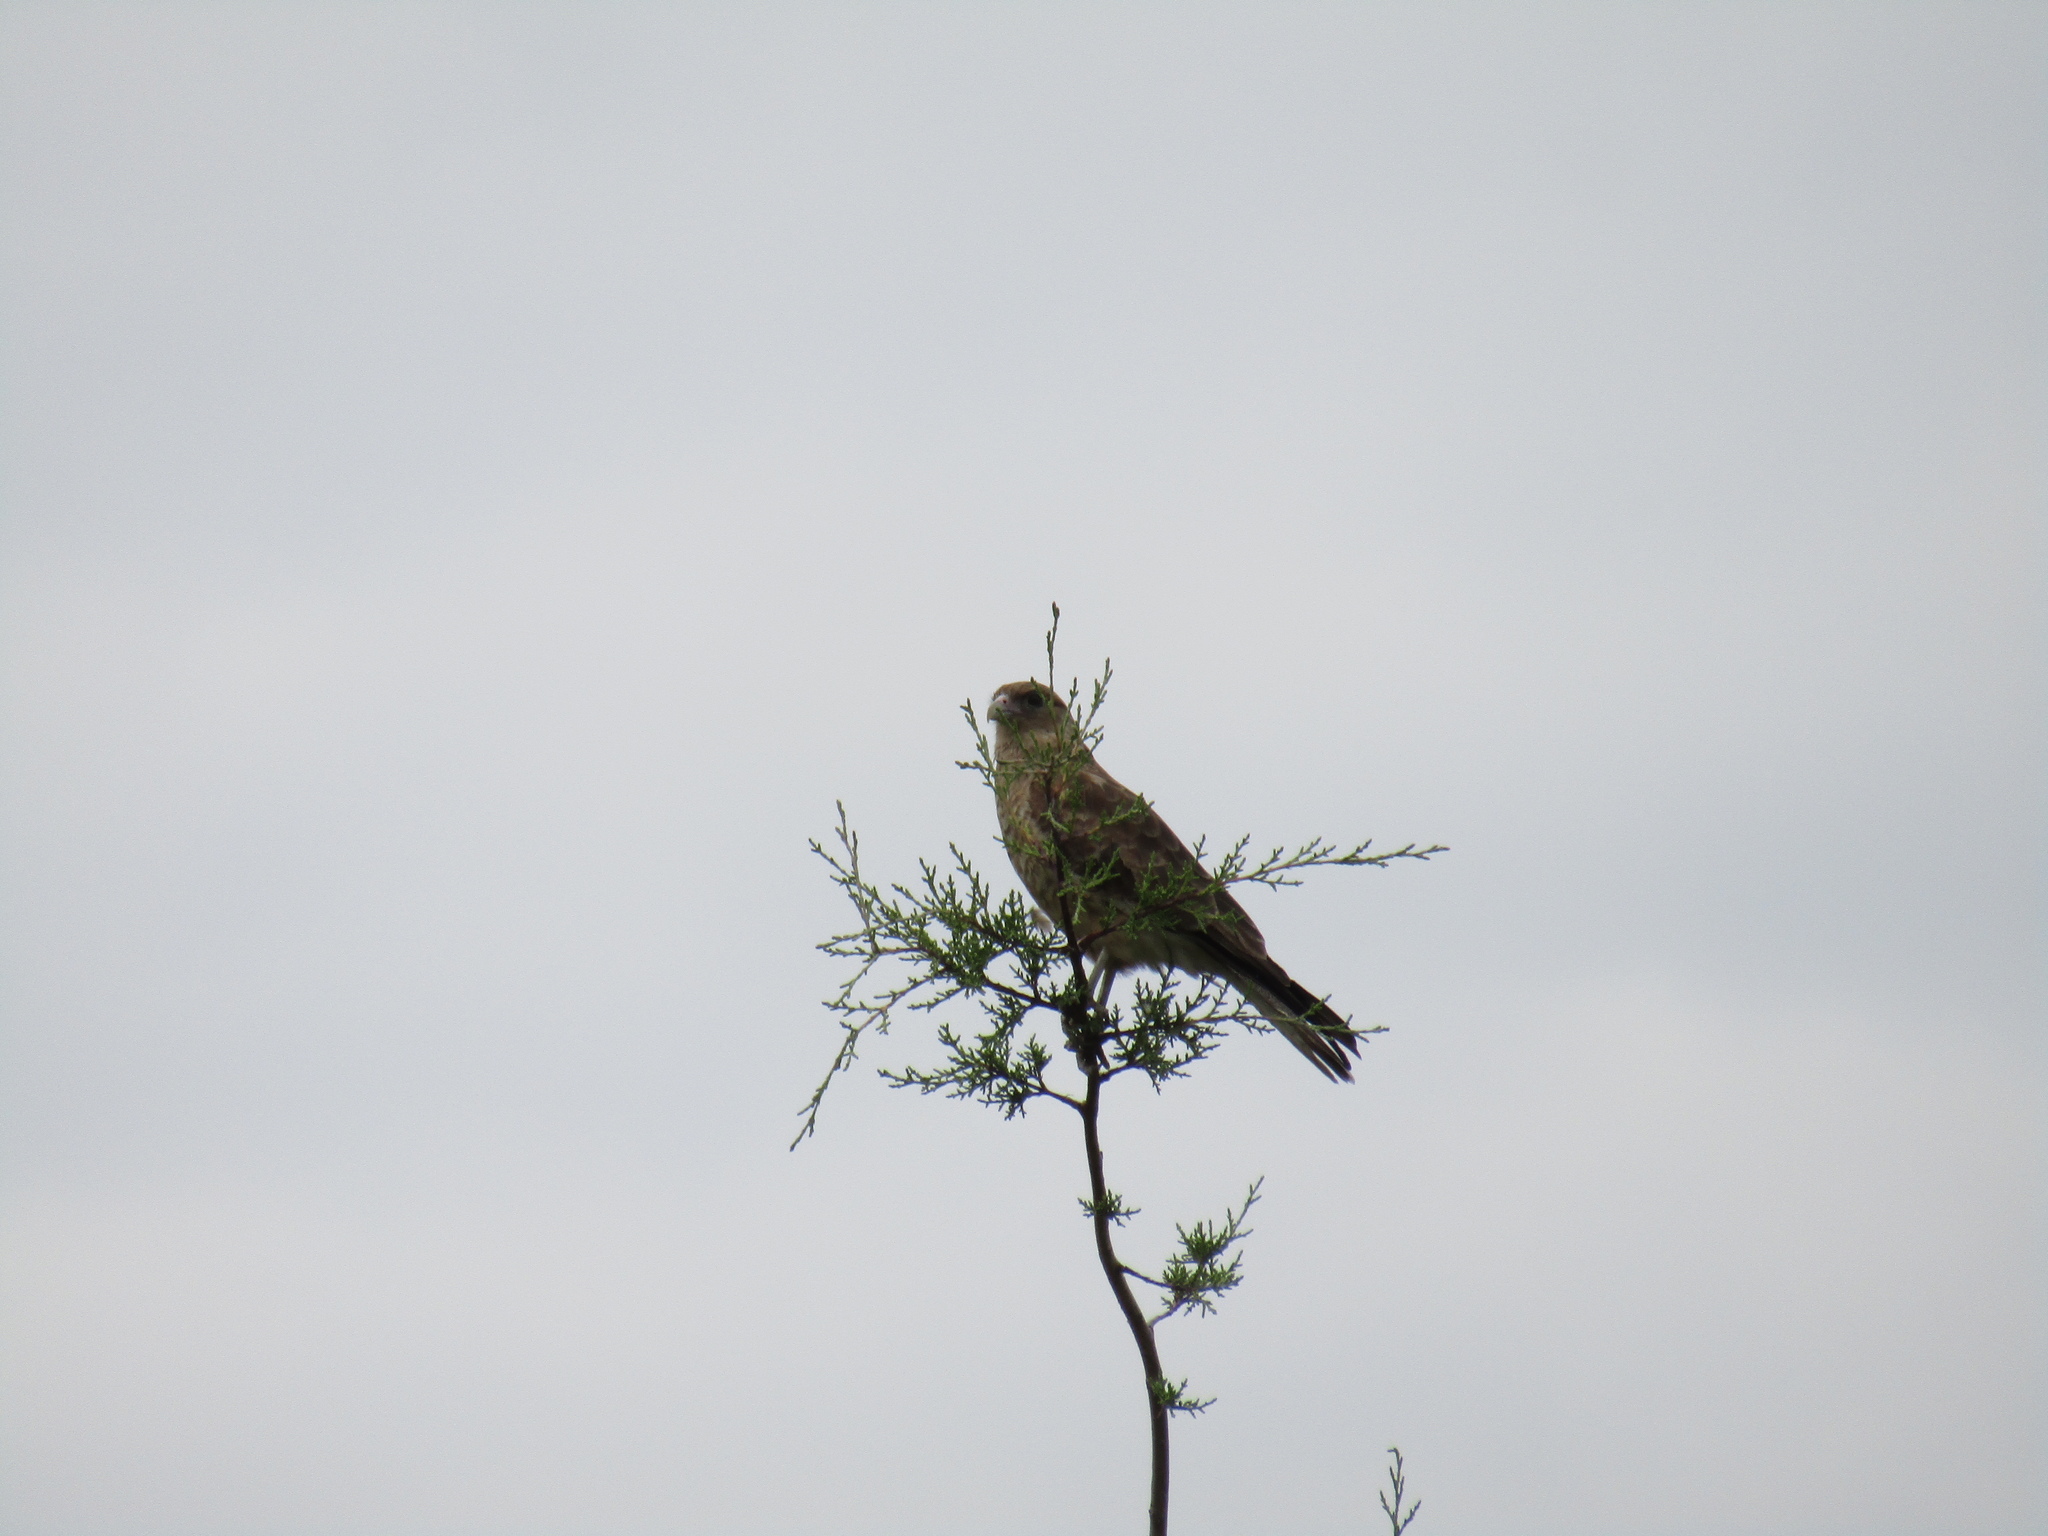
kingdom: Animalia
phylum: Chordata
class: Aves
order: Falconiformes
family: Falconidae
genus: Daptrius
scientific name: Daptrius
